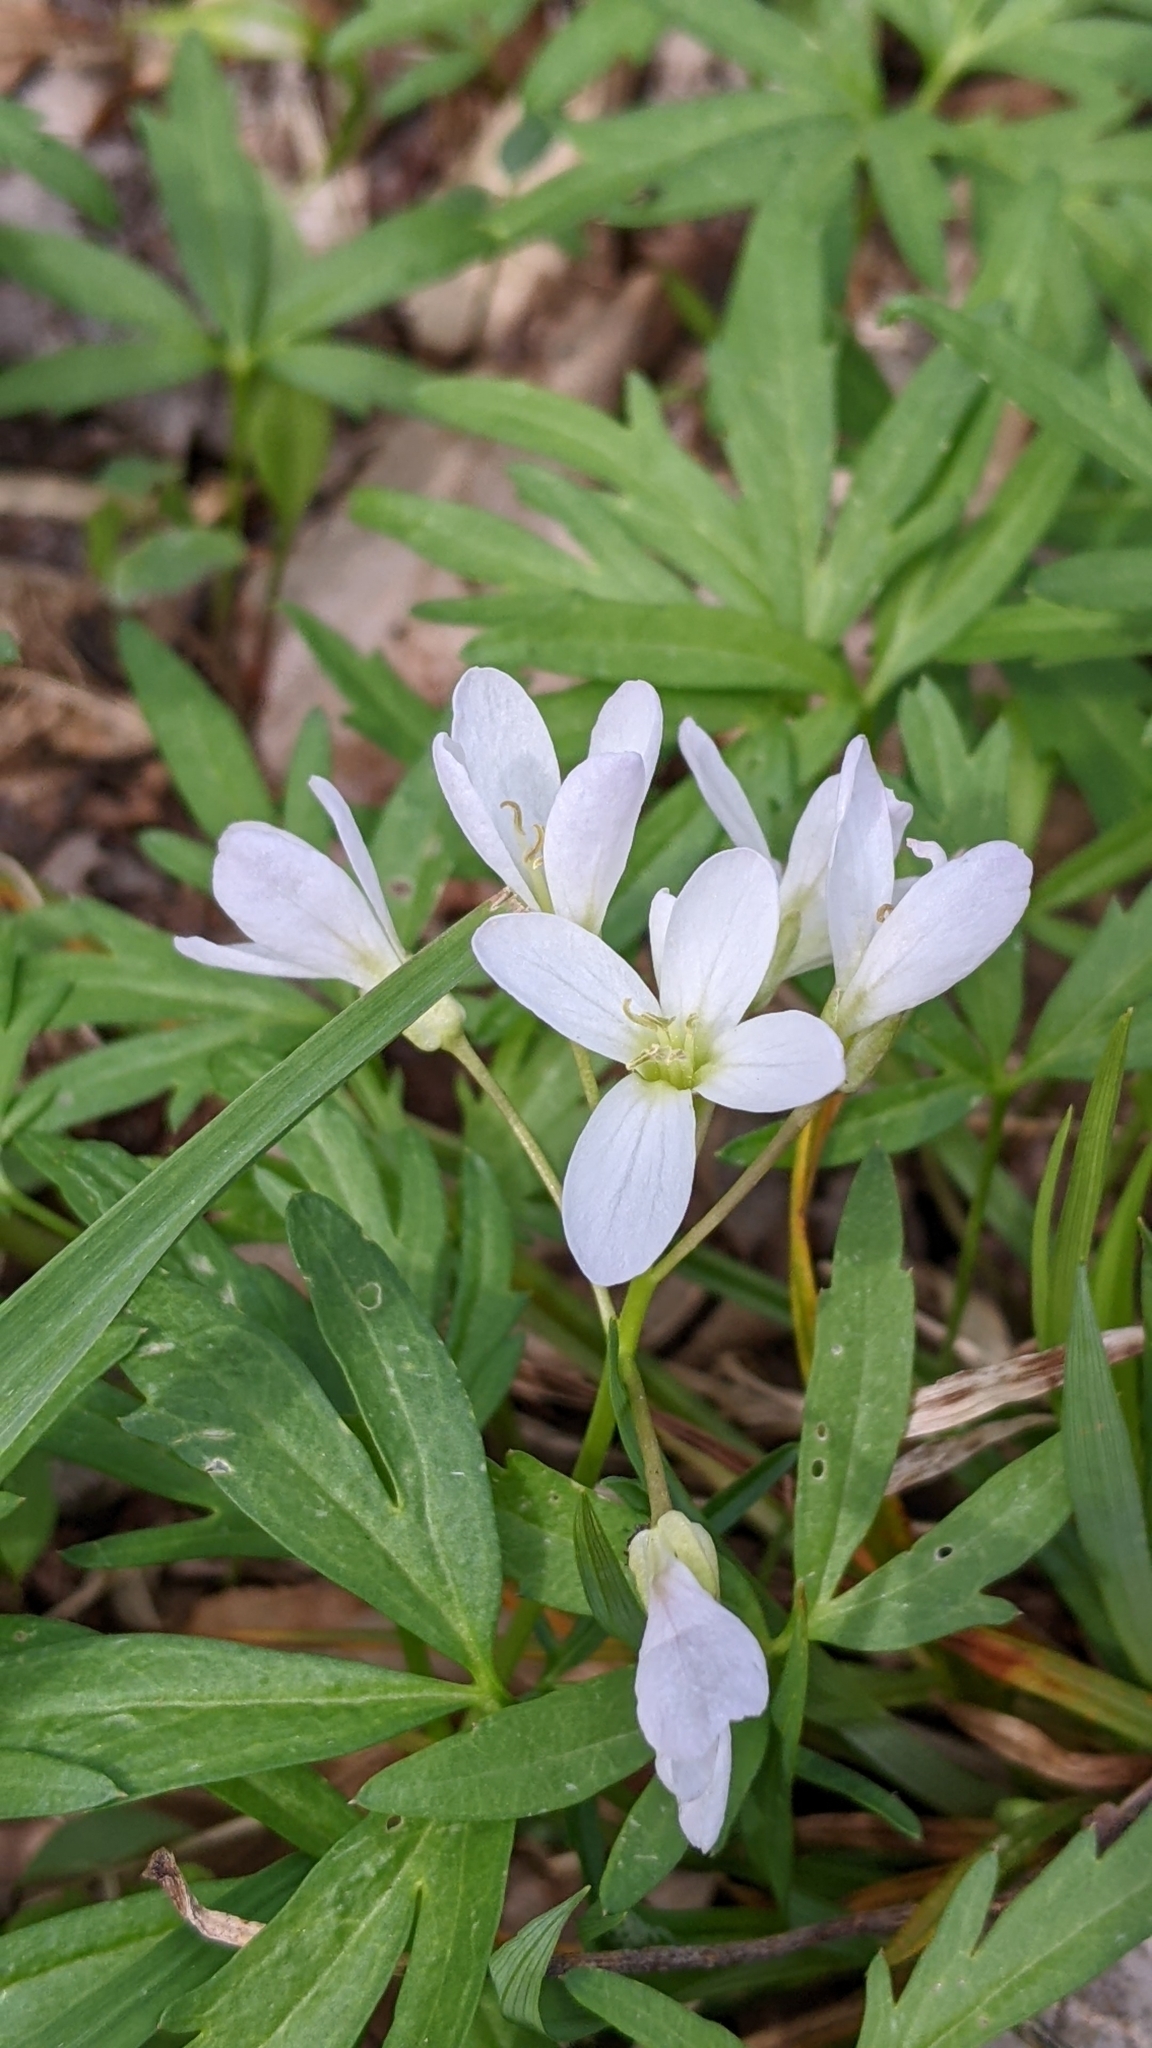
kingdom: Plantae
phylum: Tracheophyta
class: Magnoliopsida
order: Brassicales
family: Brassicaceae
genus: Cardamine
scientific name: Cardamine concatenata
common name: Cut-leaf toothcup
